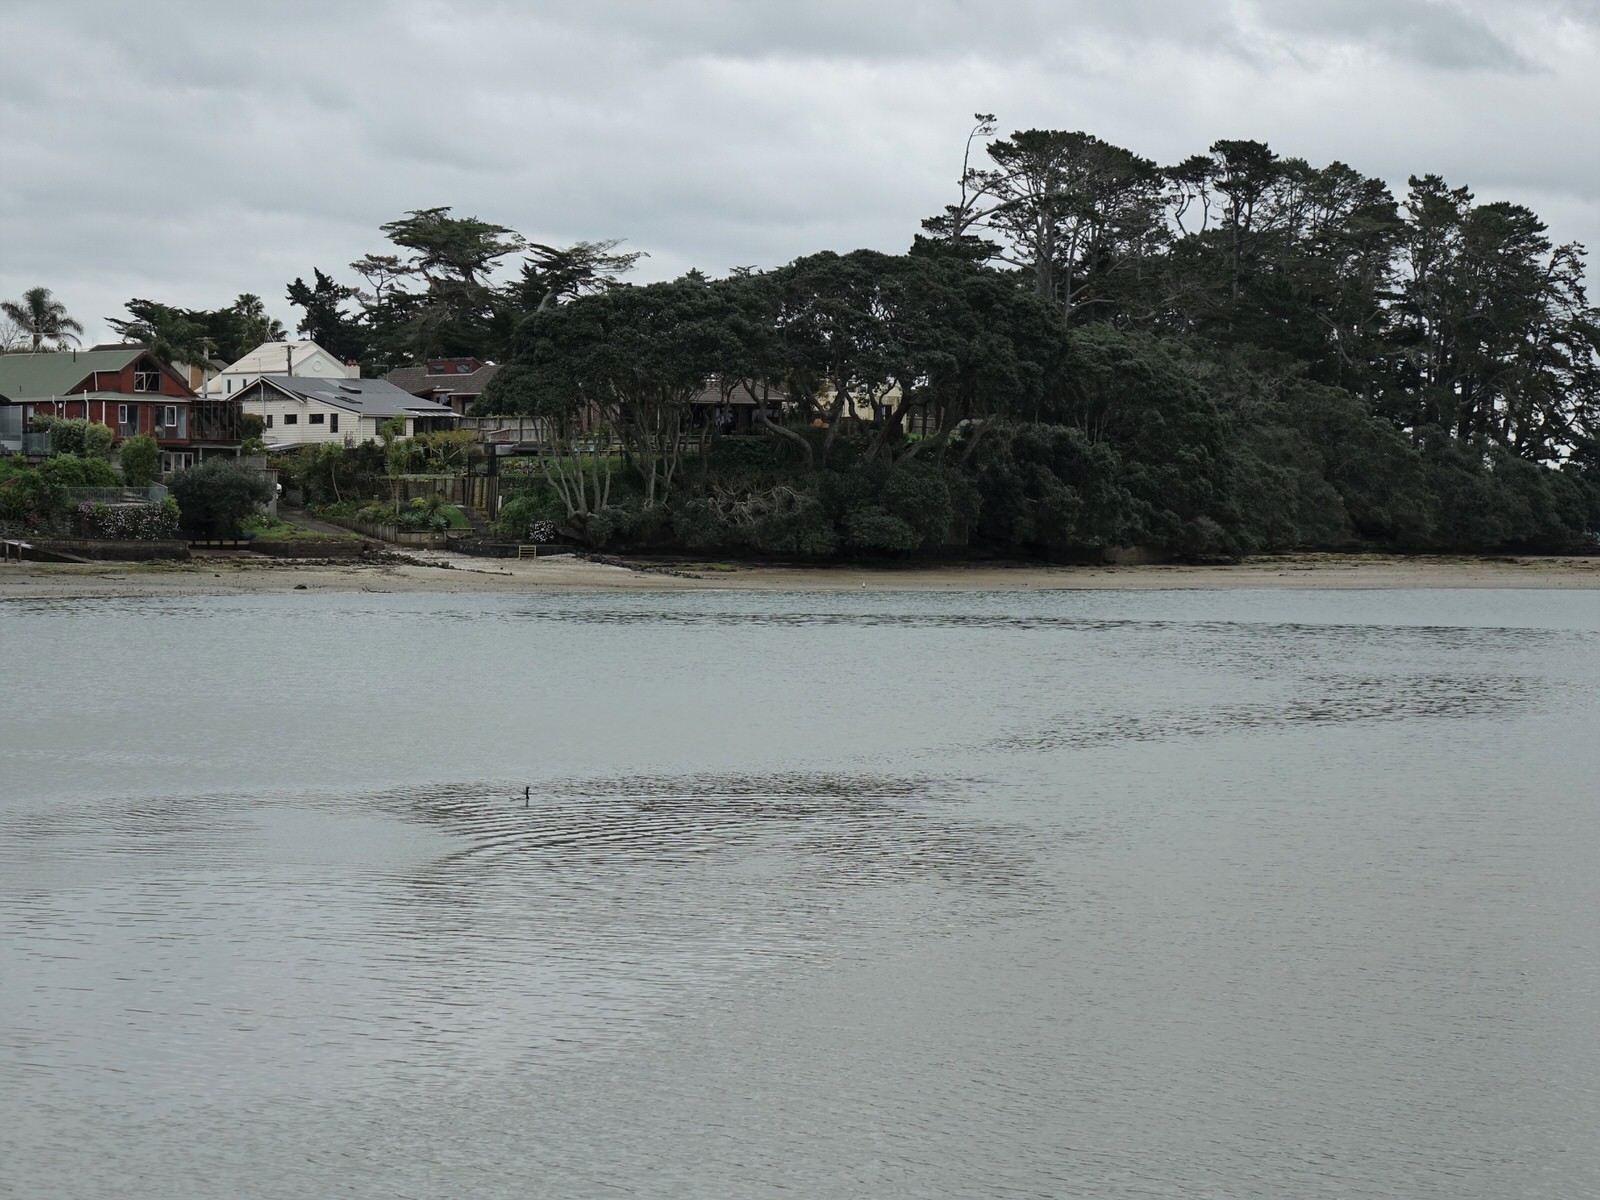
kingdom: Animalia
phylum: Chordata
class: Aves
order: Suliformes
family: Phalacrocoracidae
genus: Phalacrocorax
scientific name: Phalacrocorax varius
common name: Pied cormorant
